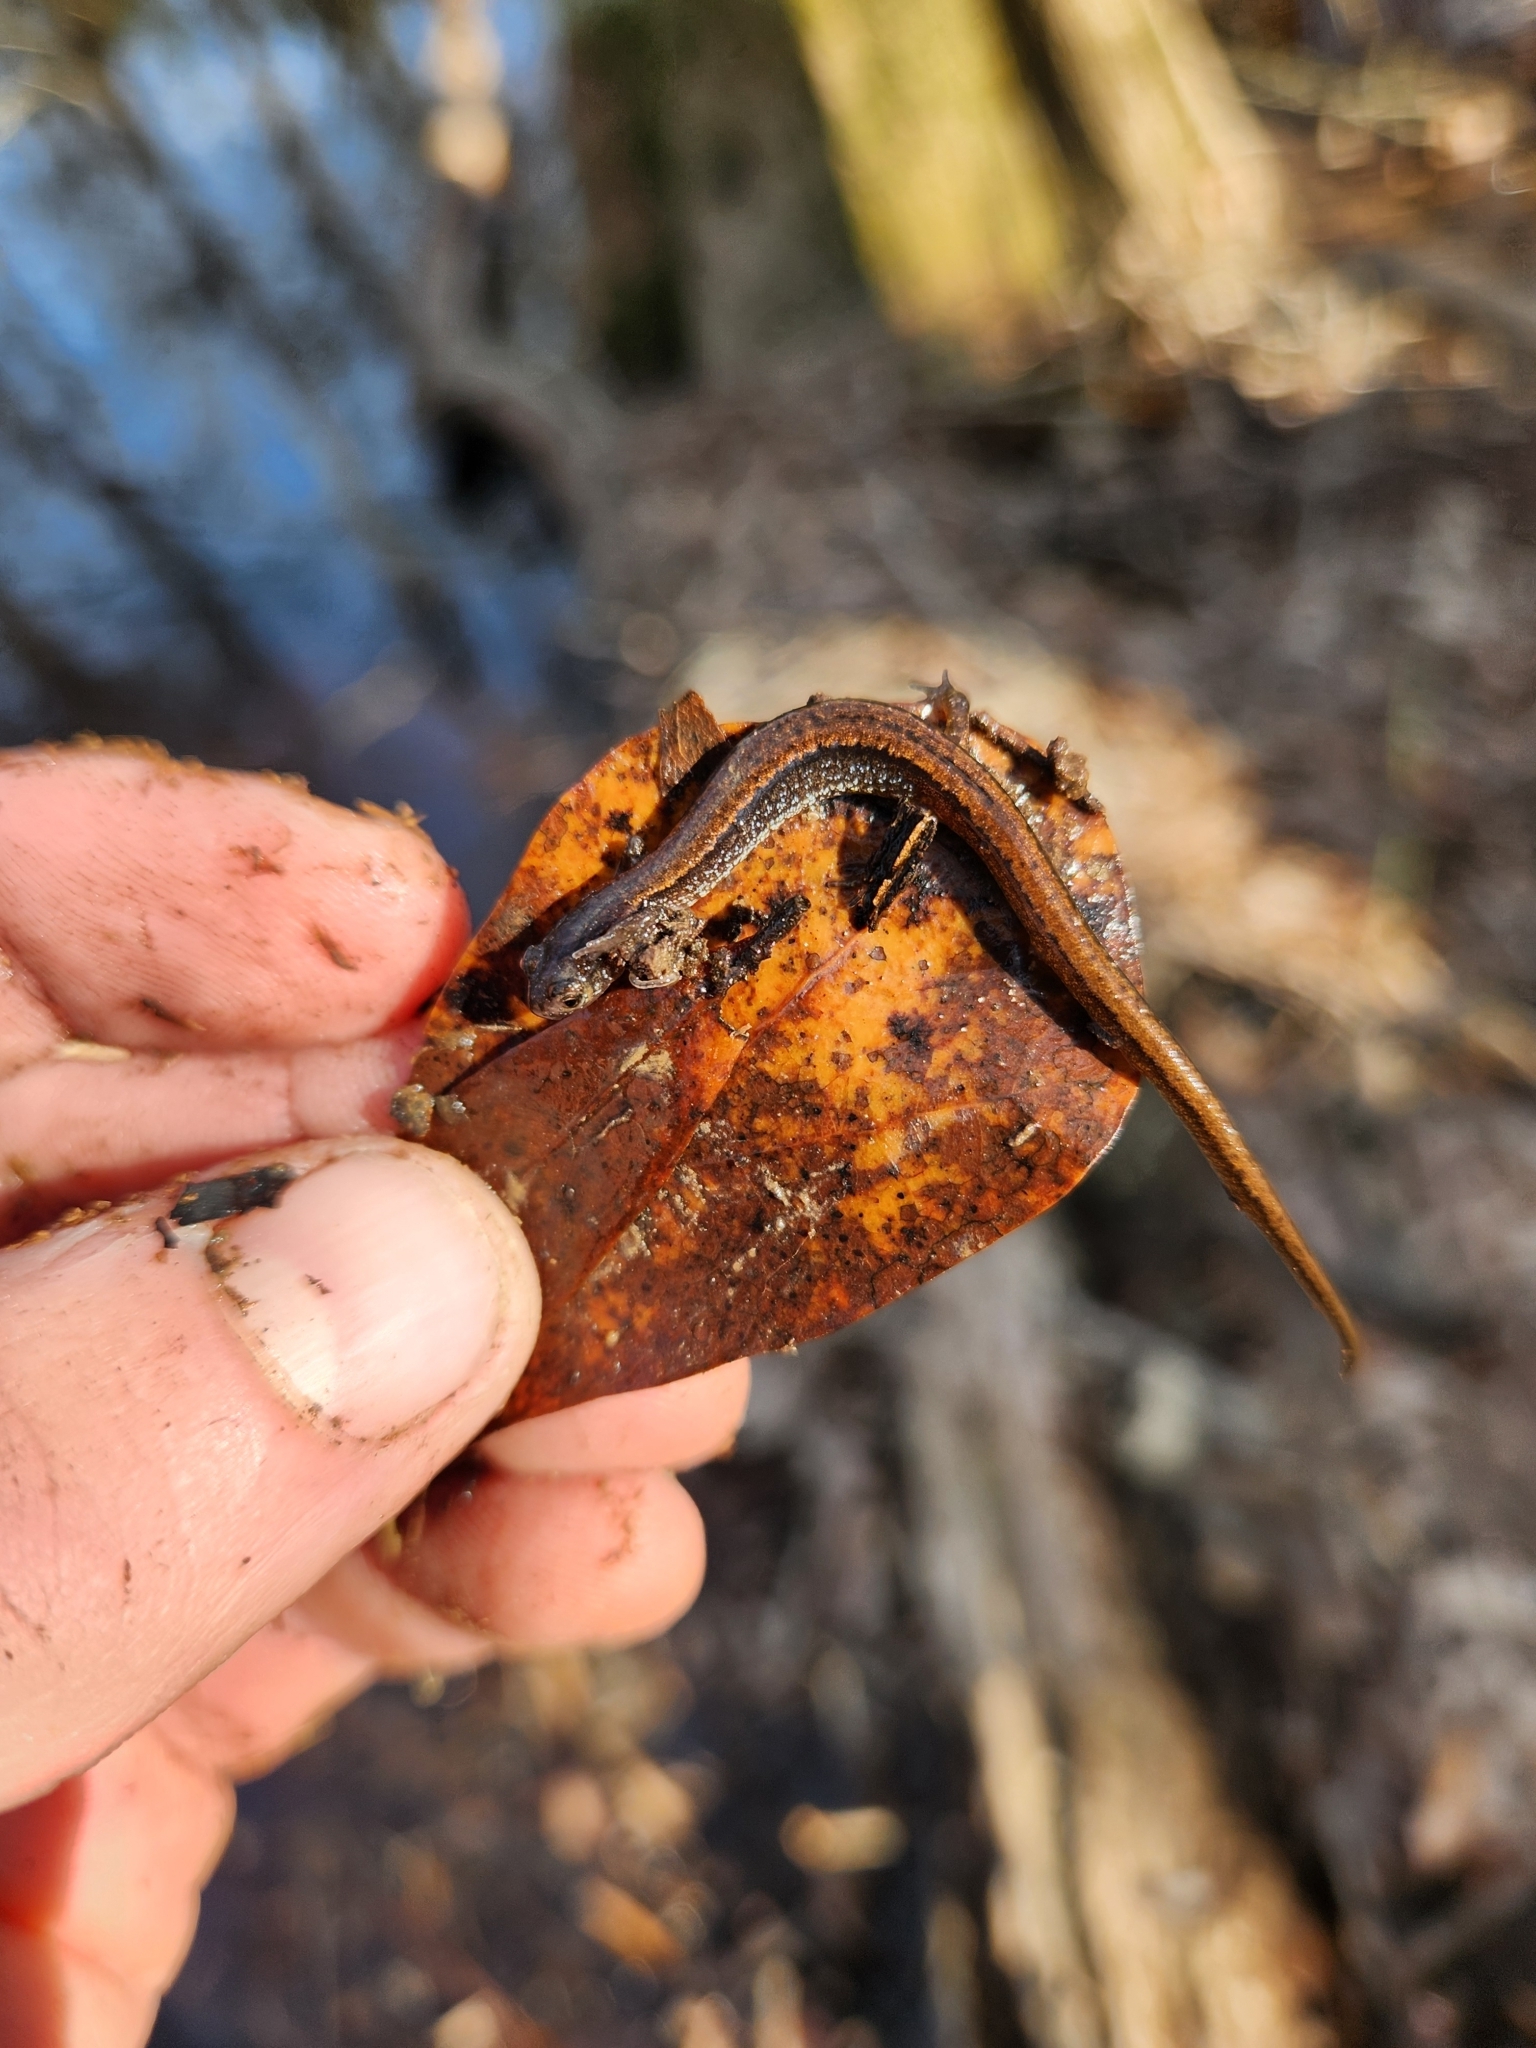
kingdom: Animalia
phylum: Chordata
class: Amphibia
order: Caudata
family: Plethodontidae
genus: Eurycea
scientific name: Eurycea paludicola
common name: Western dwarf salamander
